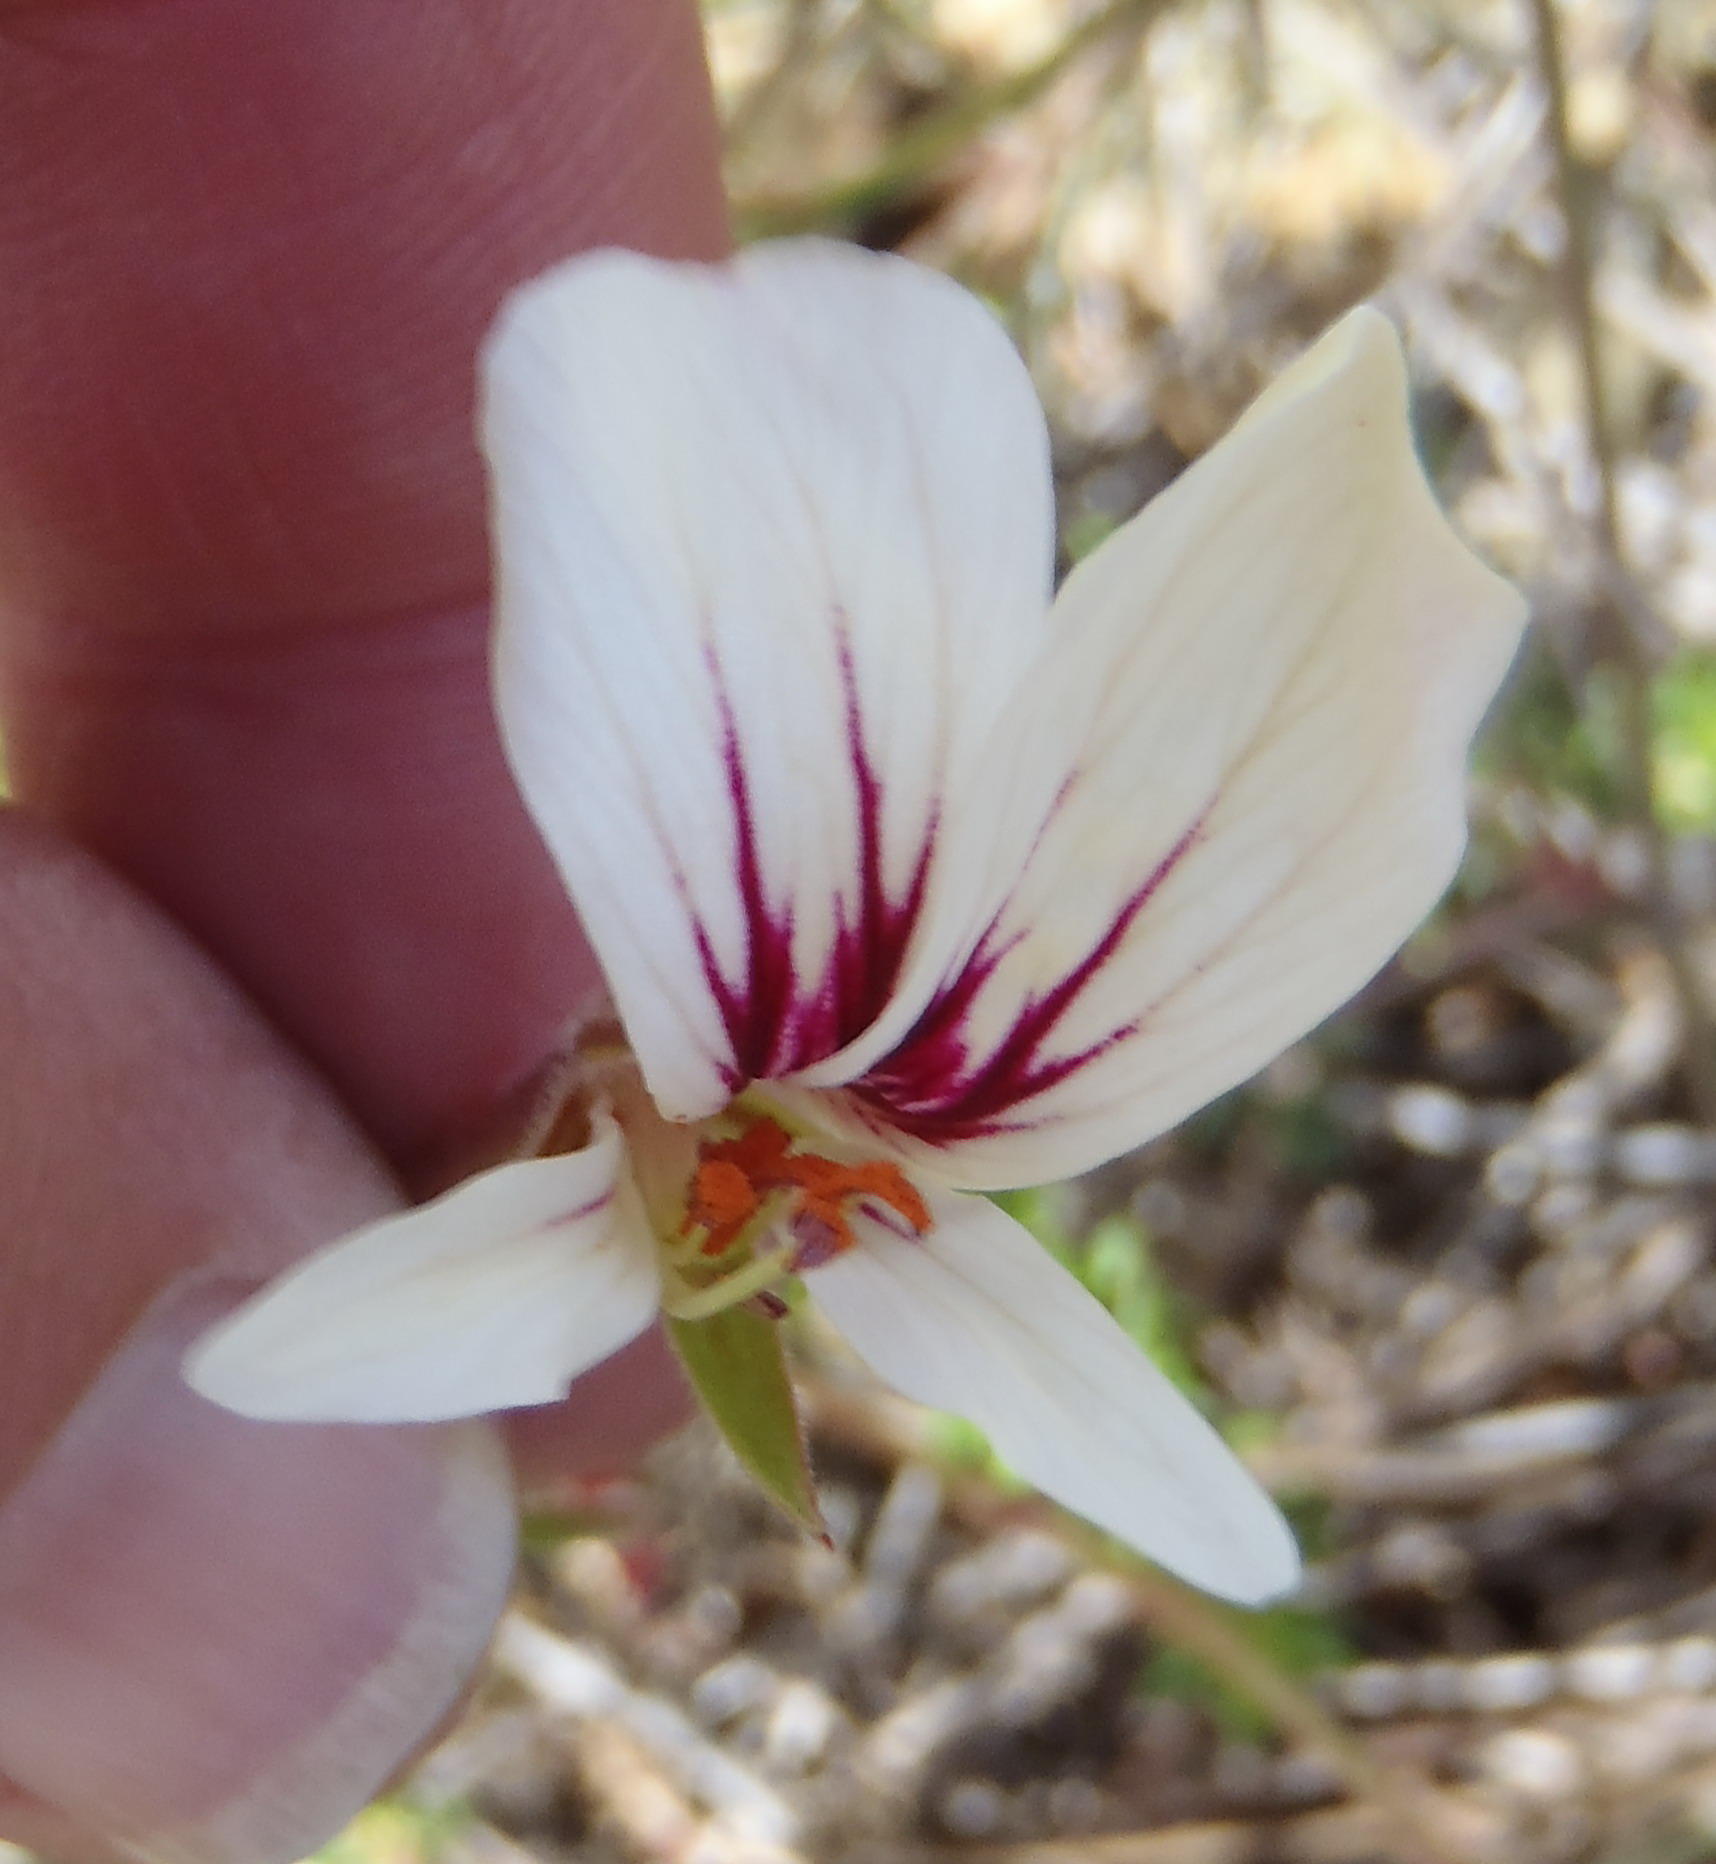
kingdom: Plantae
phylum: Tracheophyta
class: Magnoliopsida
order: Geraniales
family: Geraniaceae
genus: Pelargonium
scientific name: Pelargonium caucalifolium
